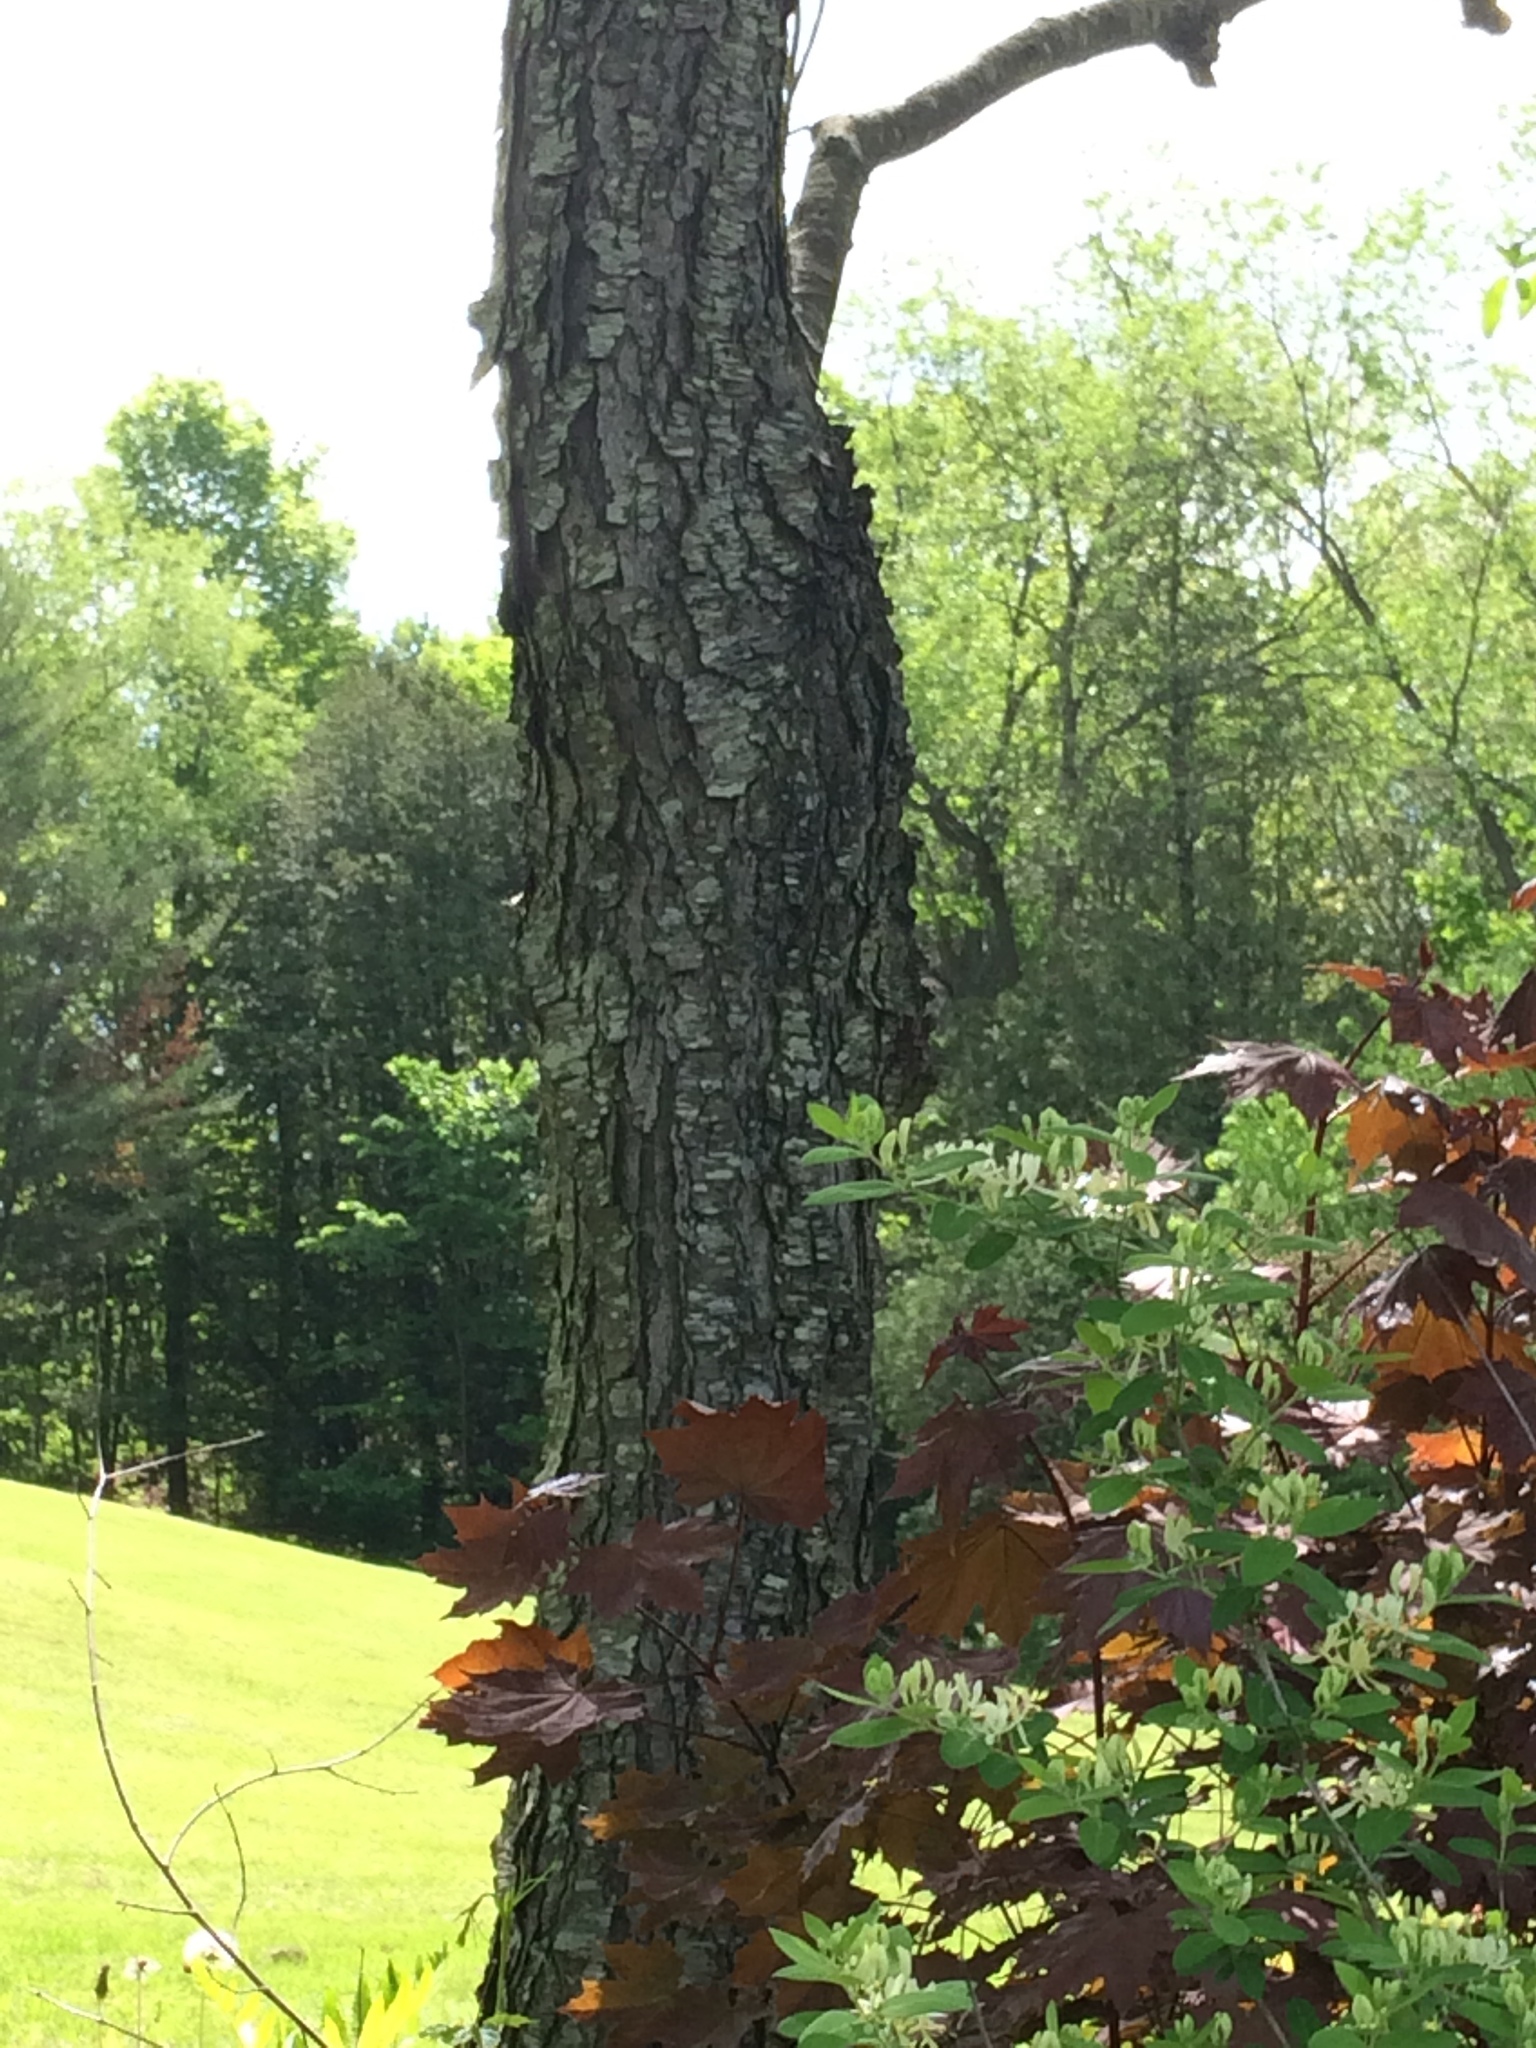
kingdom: Plantae
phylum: Tracheophyta
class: Magnoliopsida
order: Rosales
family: Rosaceae
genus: Prunus
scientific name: Prunus serotina
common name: Black cherry
